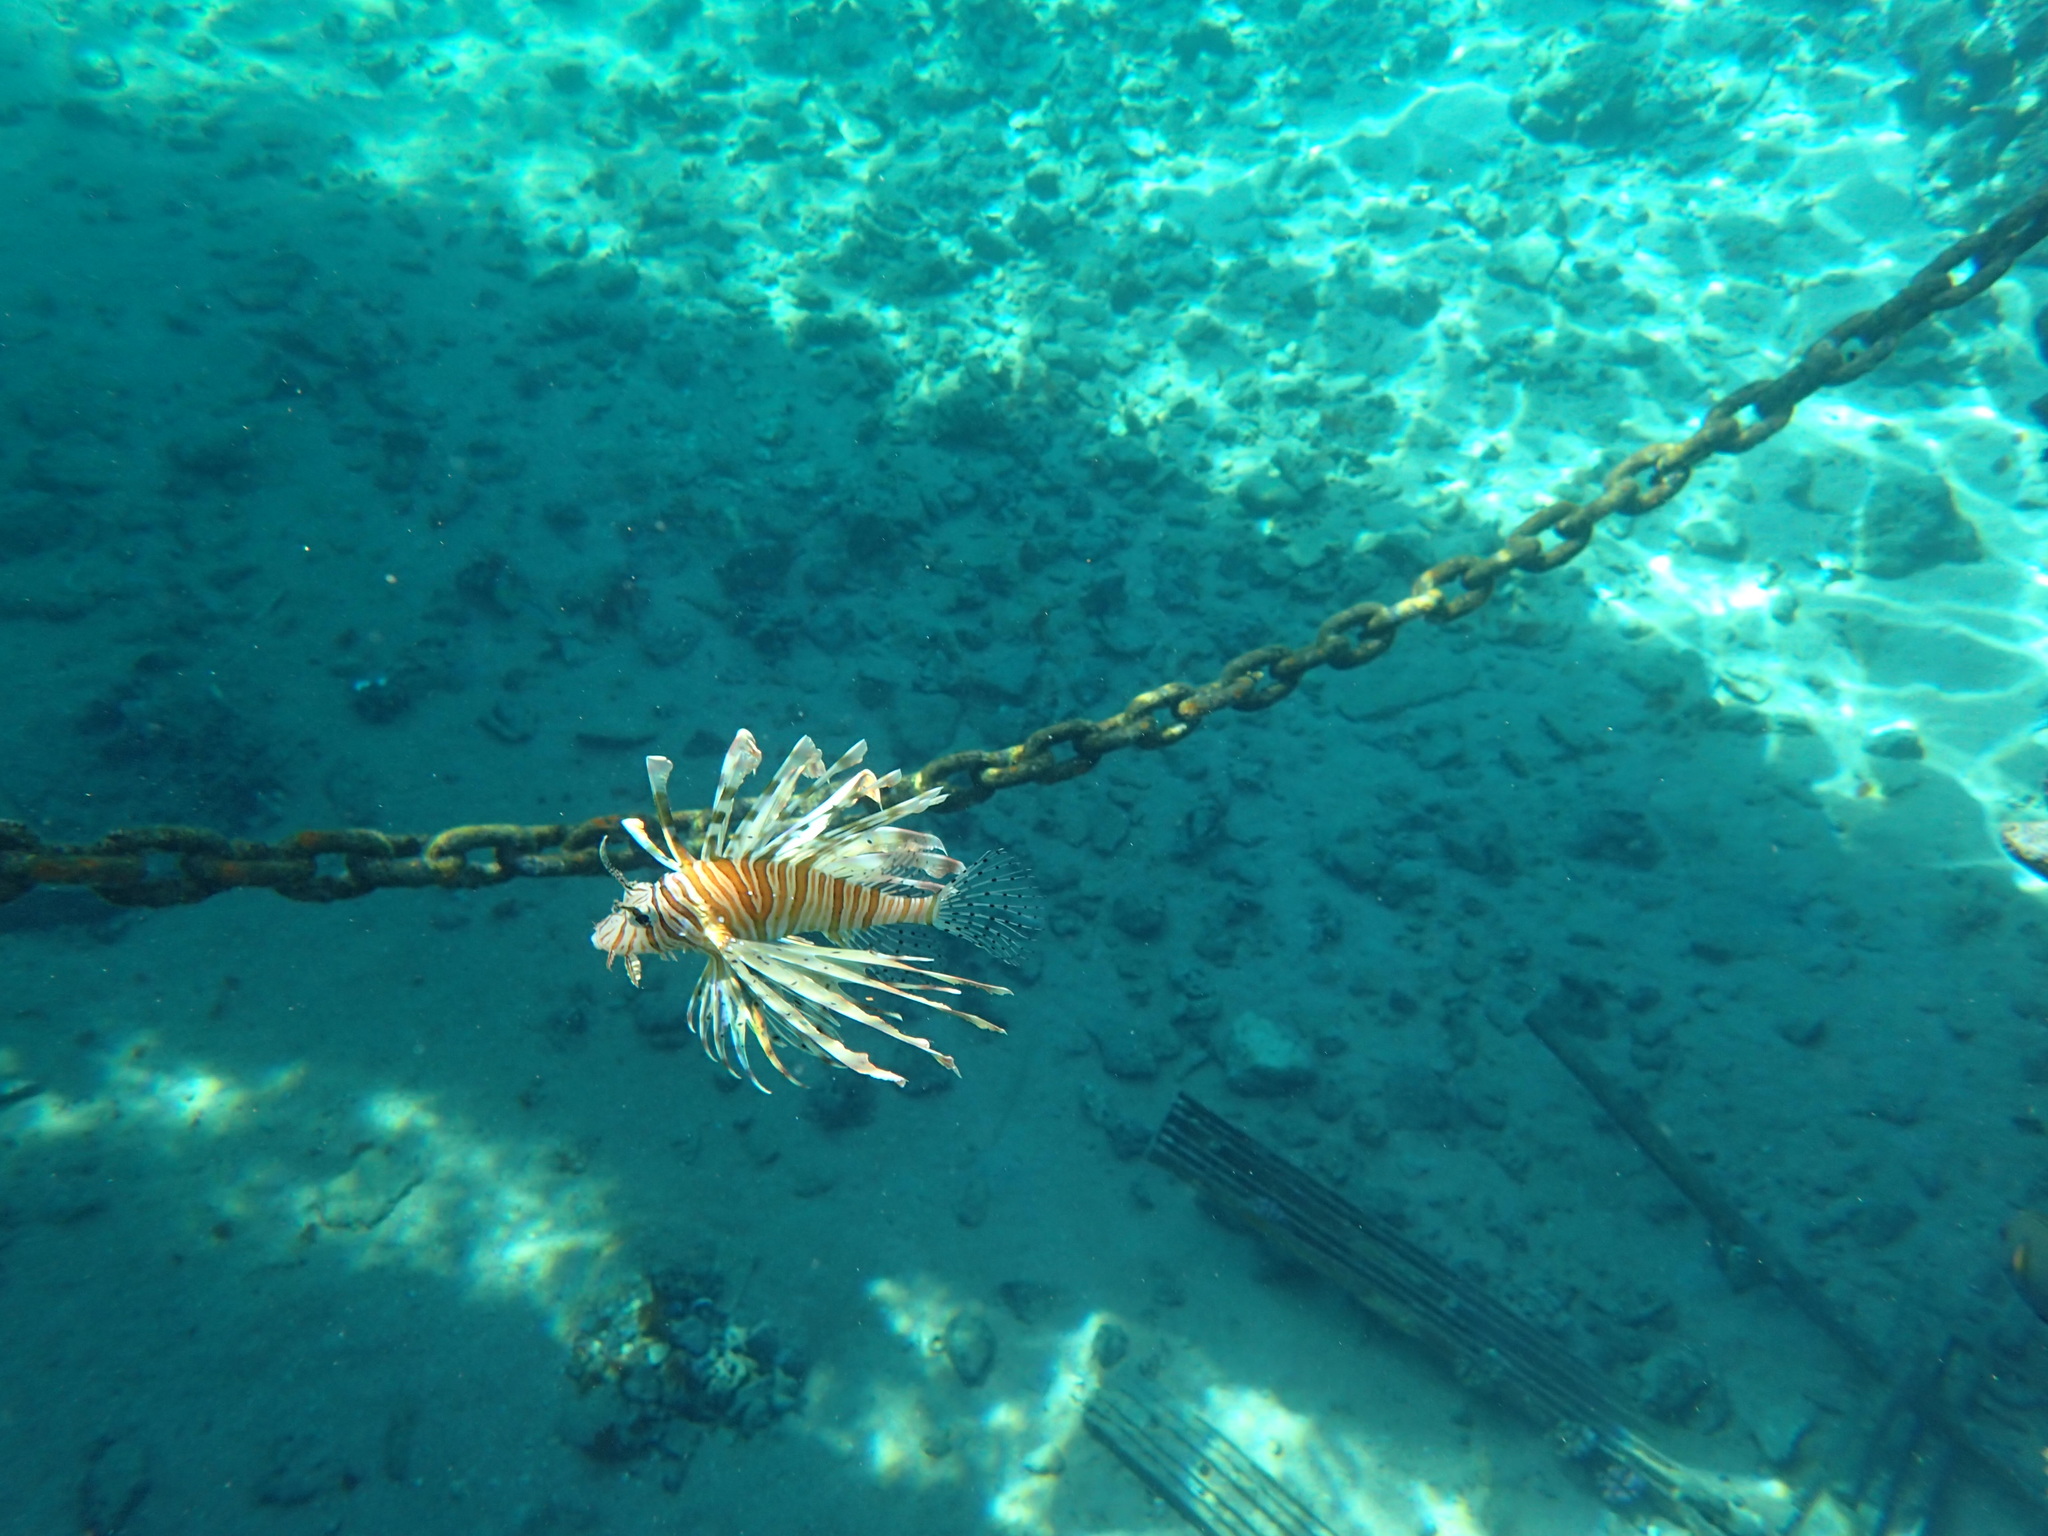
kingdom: Animalia
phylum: Chordata
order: Scorpaeniformes
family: Scorpaenidae
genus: Pterois
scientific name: Pterois miles
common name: Devil firefish
